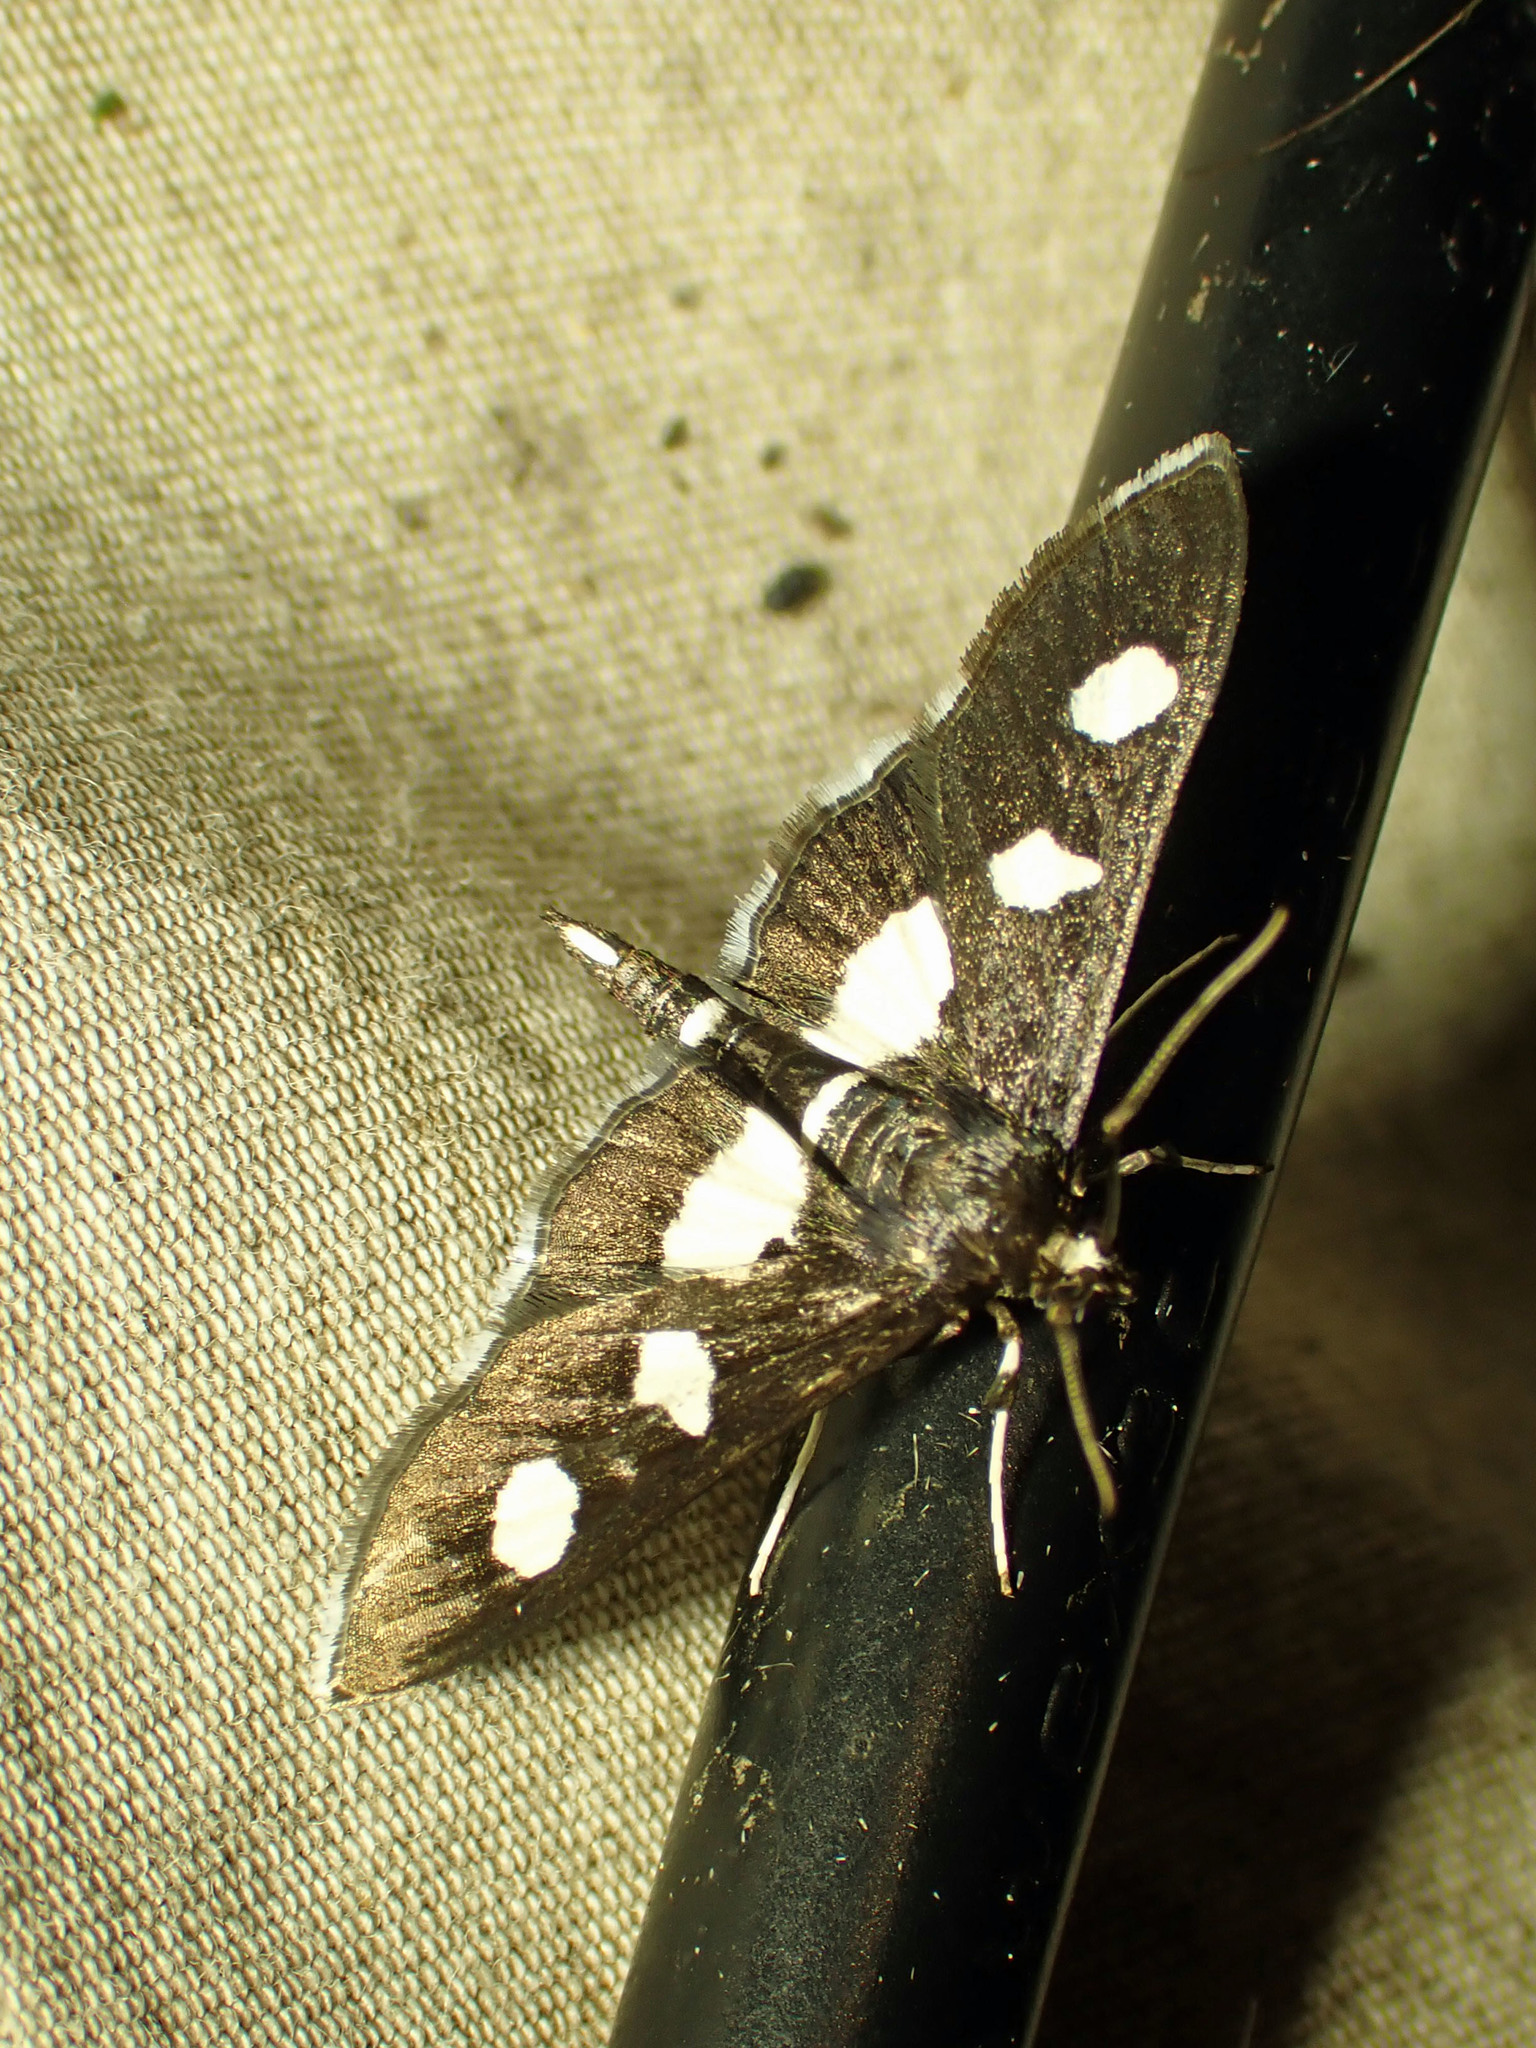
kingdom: Animalia
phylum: Arthropoda
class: Insecta
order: Lepidoptera
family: Crambidae
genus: Desmia
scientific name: Desmia funeralis
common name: Grape leaf folder moth
